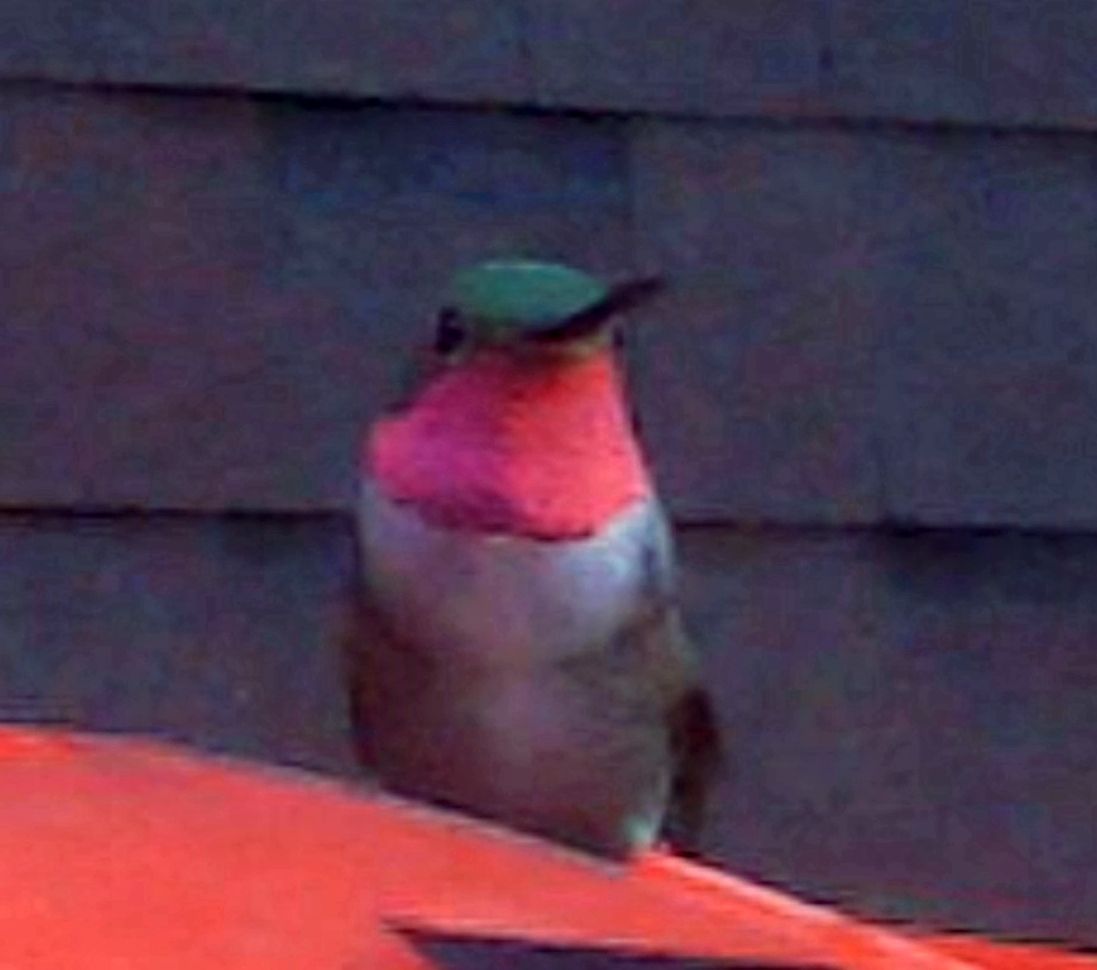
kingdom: Animalia
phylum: Chordata
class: Aves
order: Apodiformes
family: Trochilidae
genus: Selasphorus
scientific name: Selasphorus platycercus
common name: Broad-tailed hummingbird
